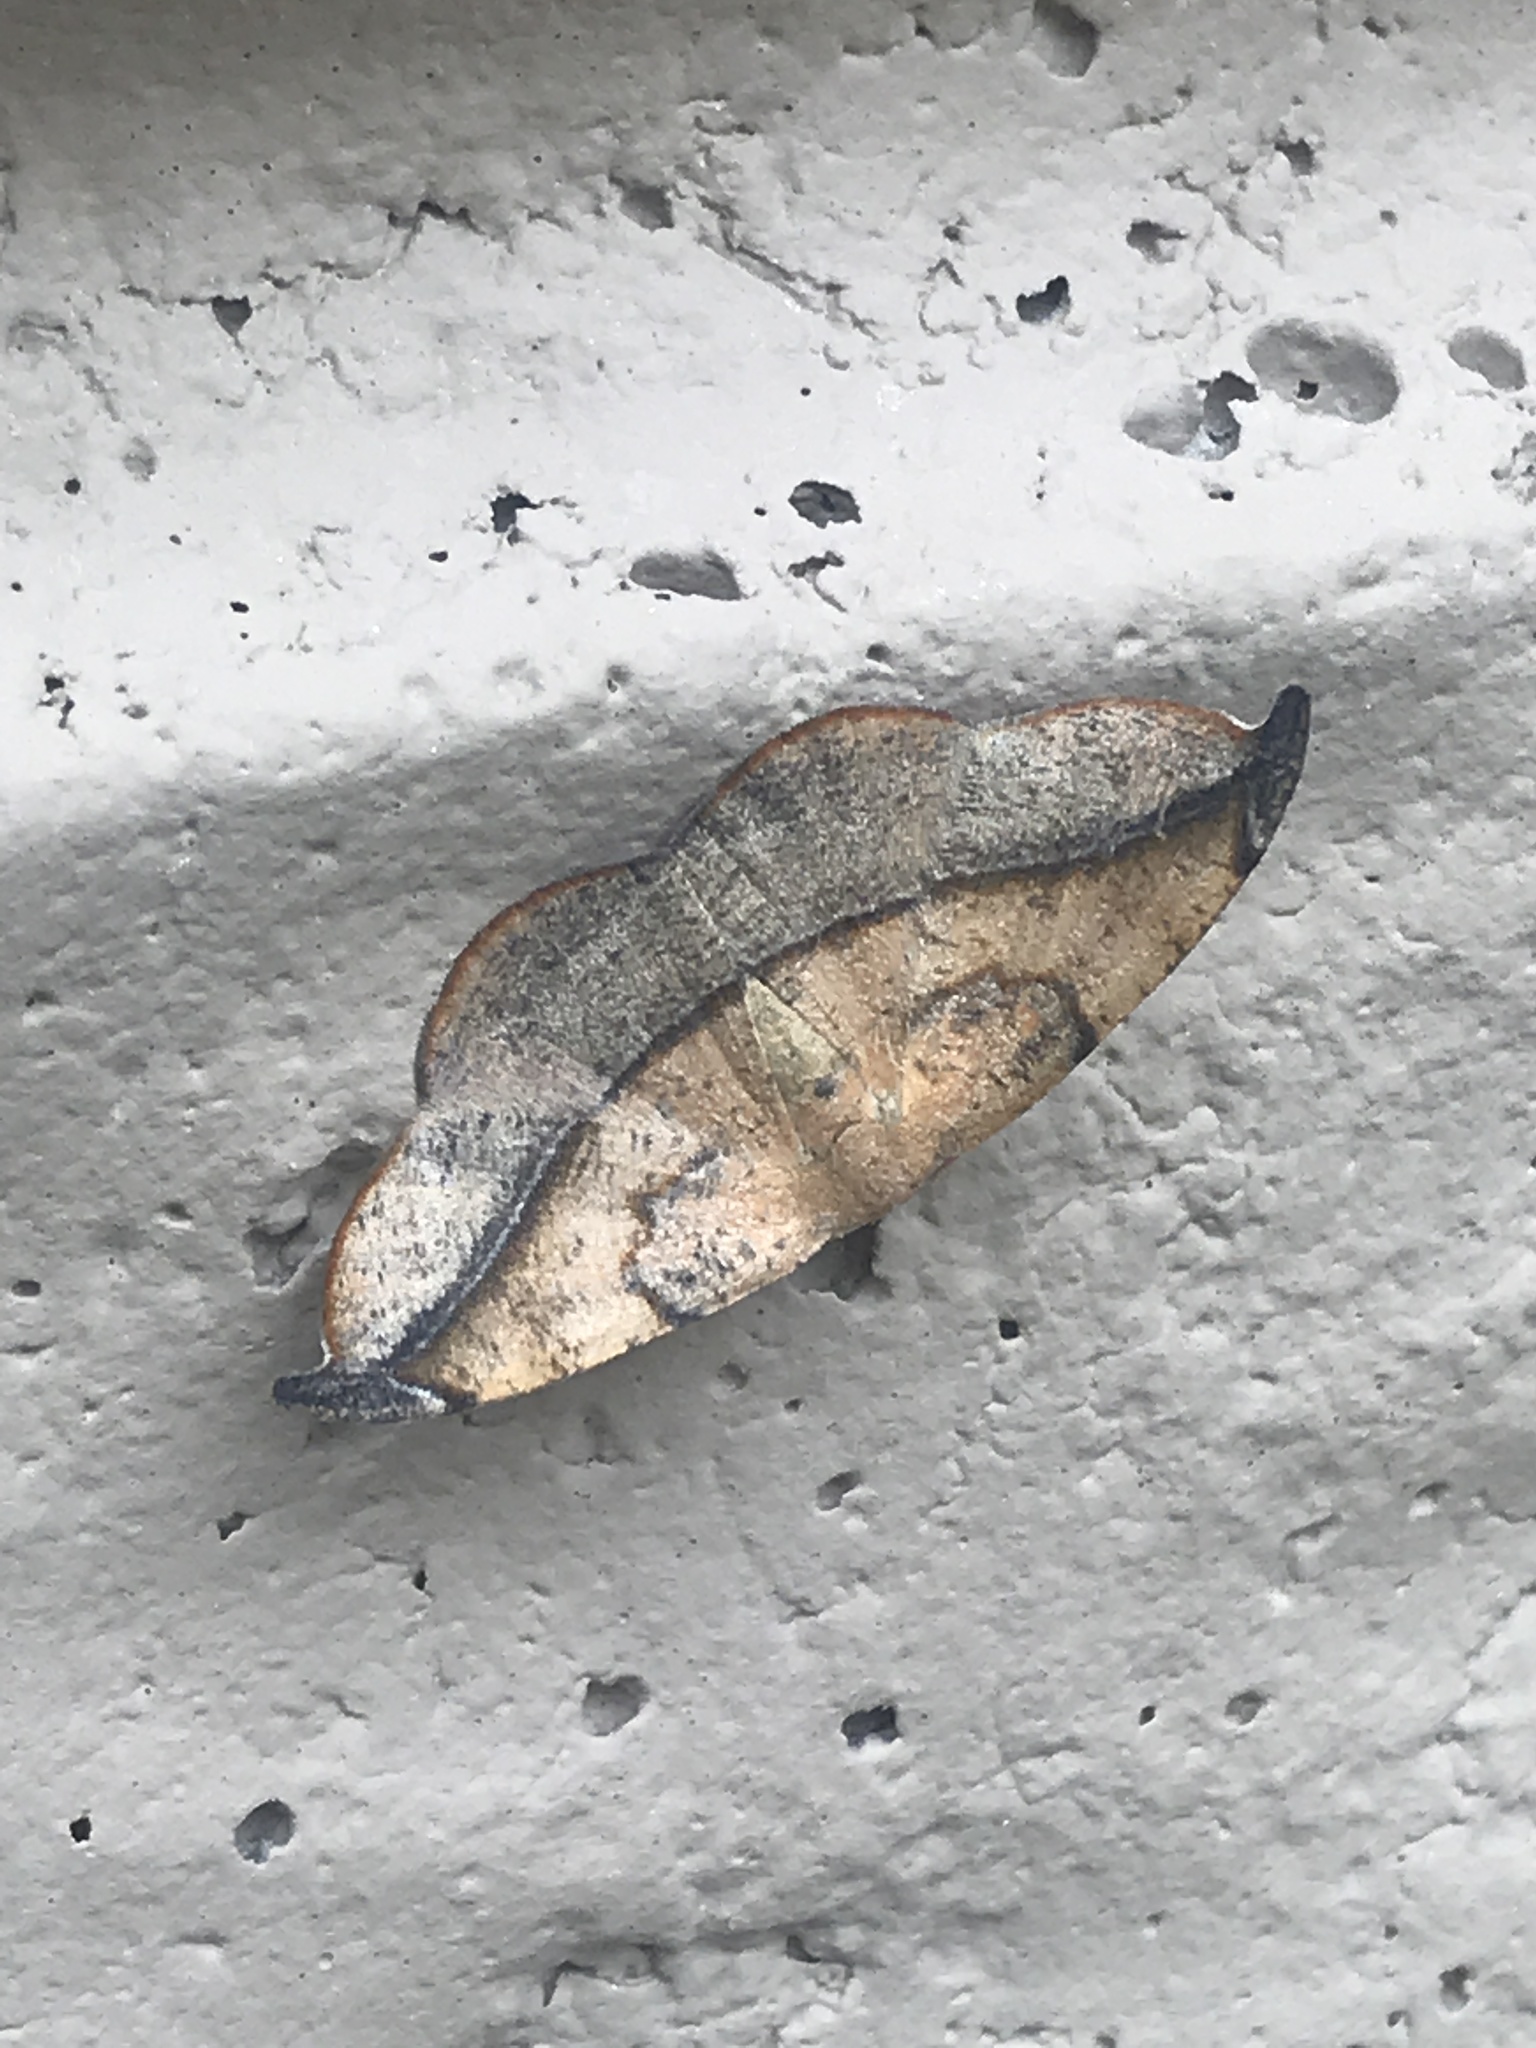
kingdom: Animalia
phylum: Arthropoda
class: Insecta
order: Lepidoptera
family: Geometridae
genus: Patalene
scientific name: Patalene olyzonaria
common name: Juniper geometer moth
